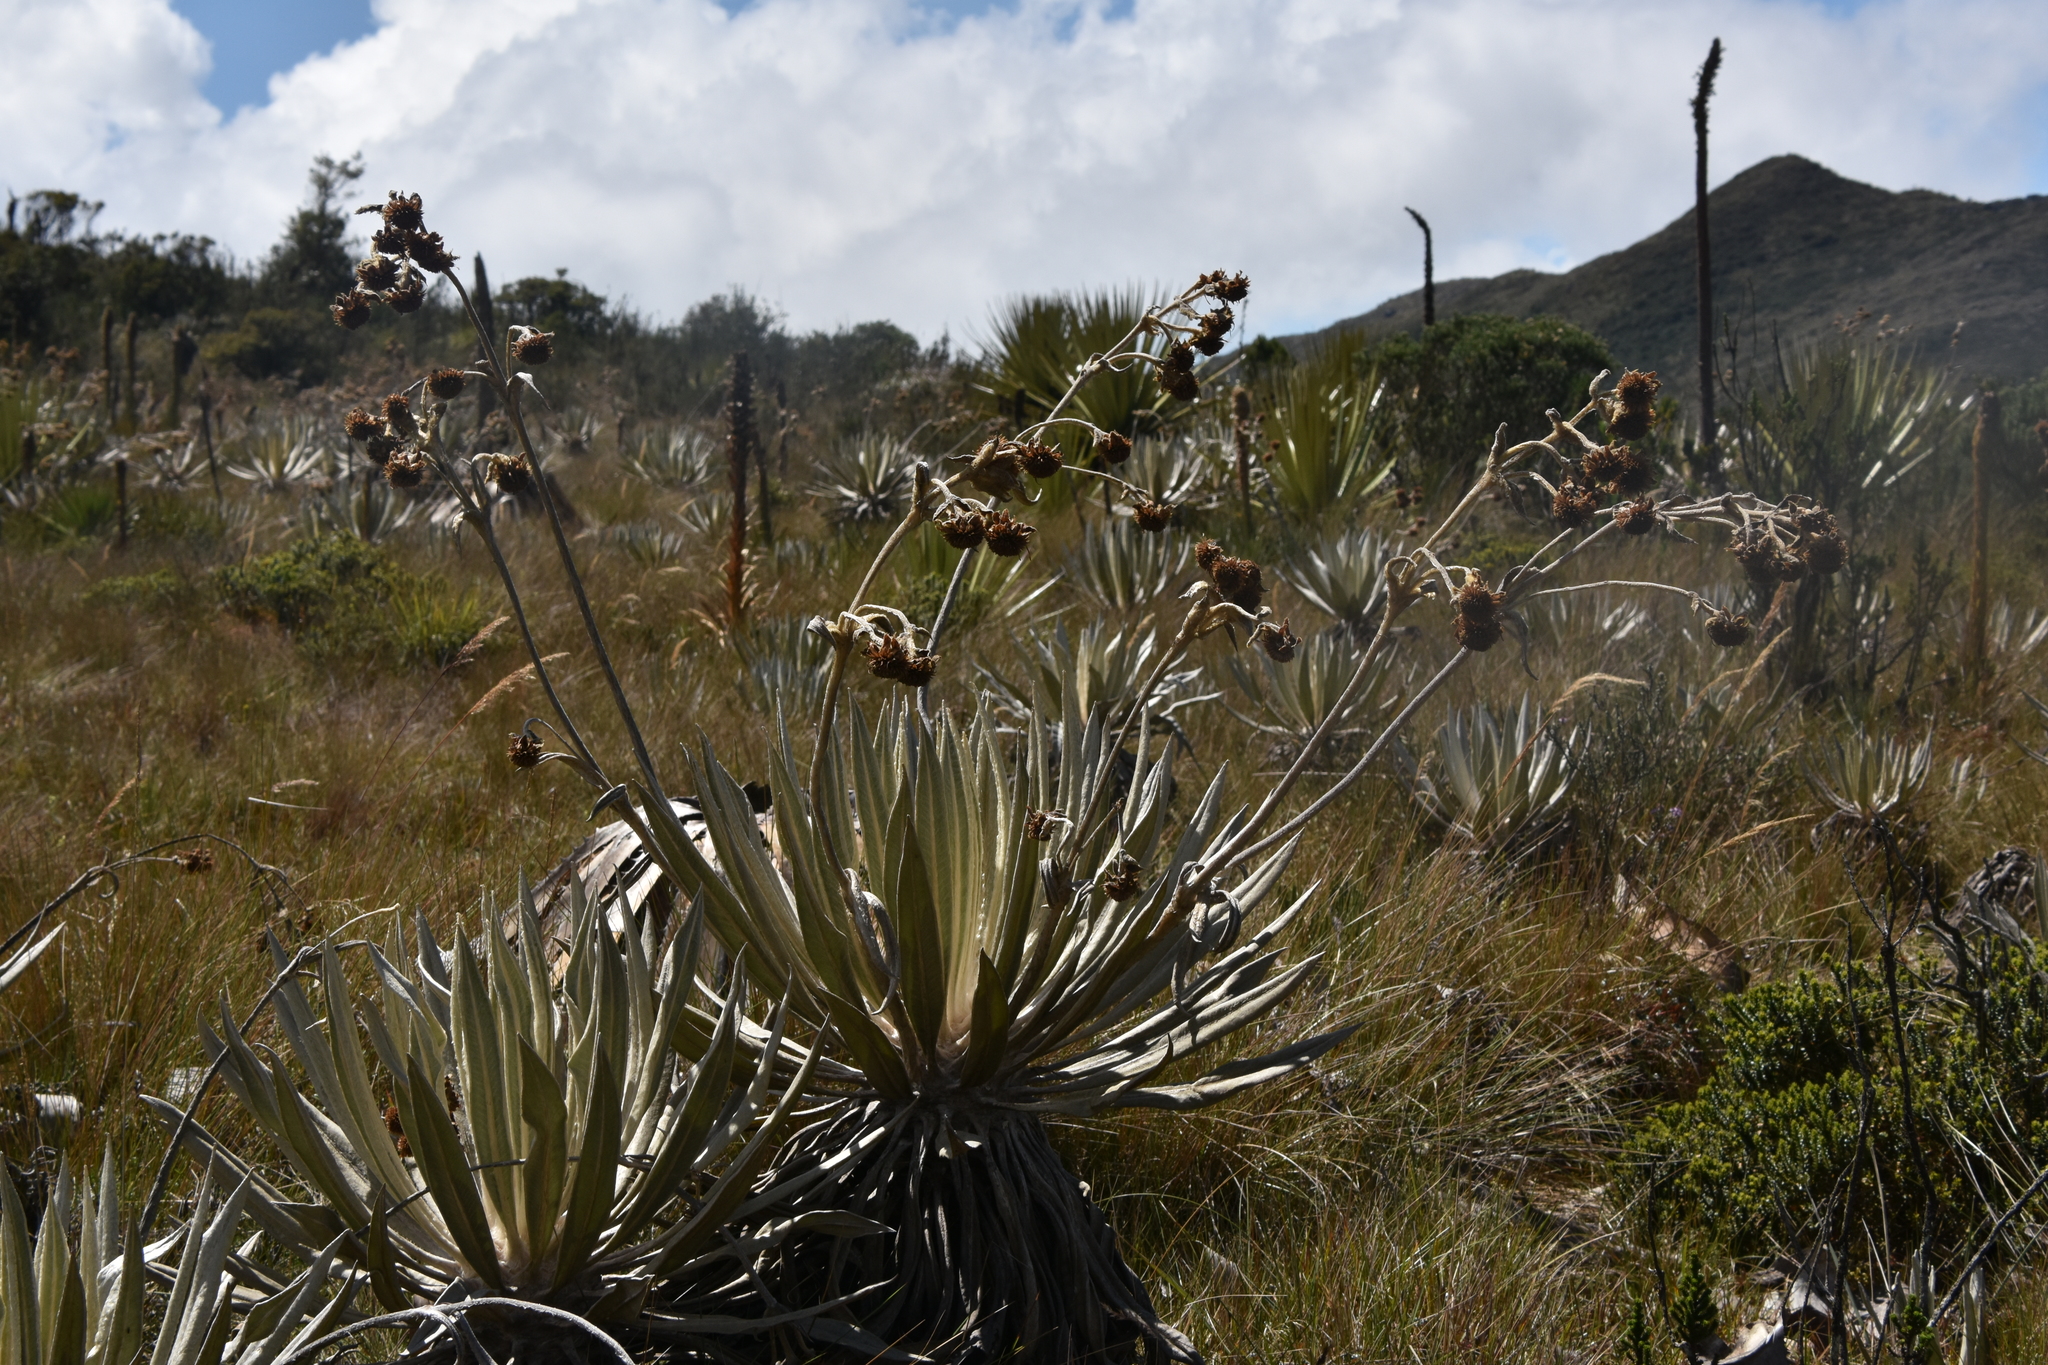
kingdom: Plantae
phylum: Tracheophyta
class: Magnoliopsida
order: Asterales
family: Asteraceae
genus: Espeletia
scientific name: Espeletia grandiflora
